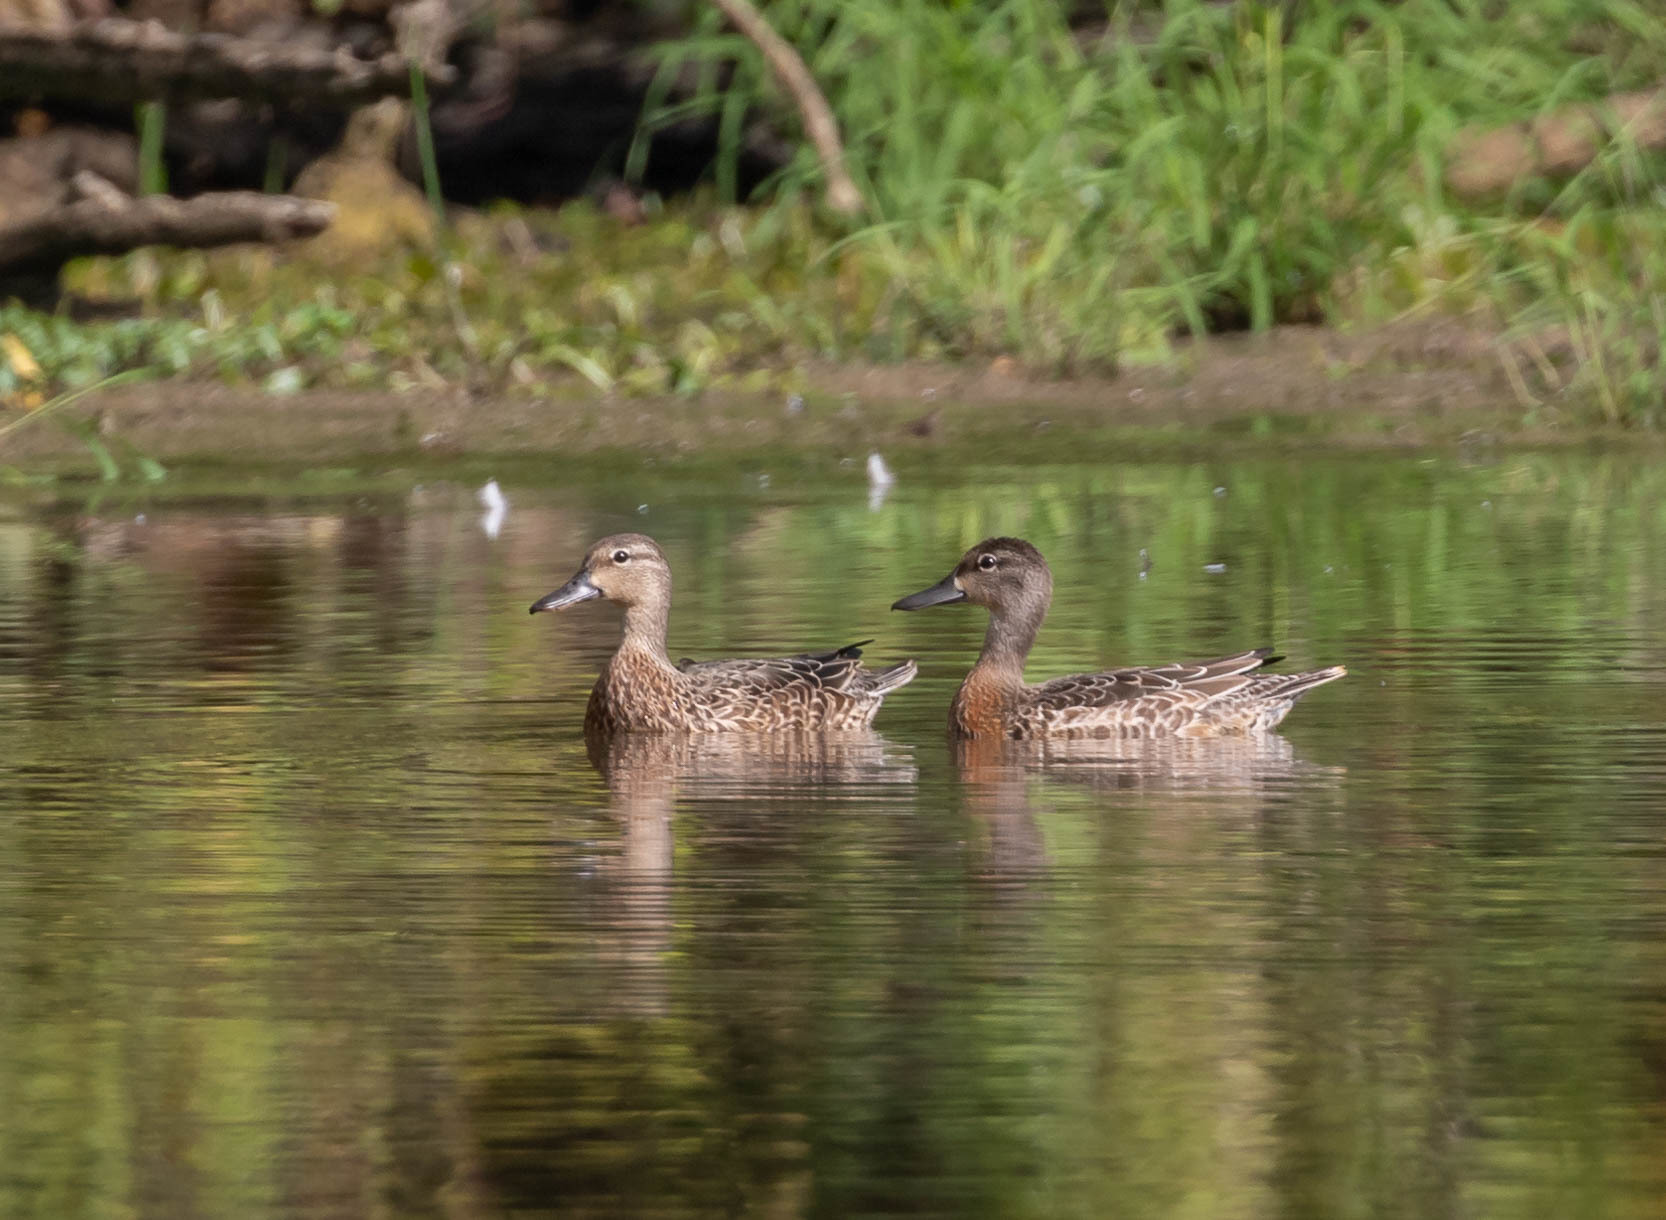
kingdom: Animalia
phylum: Chordata
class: Aves
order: Anseriformes
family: Anatidae
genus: Spatula
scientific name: Spatula discors
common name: Blue-winged teal
